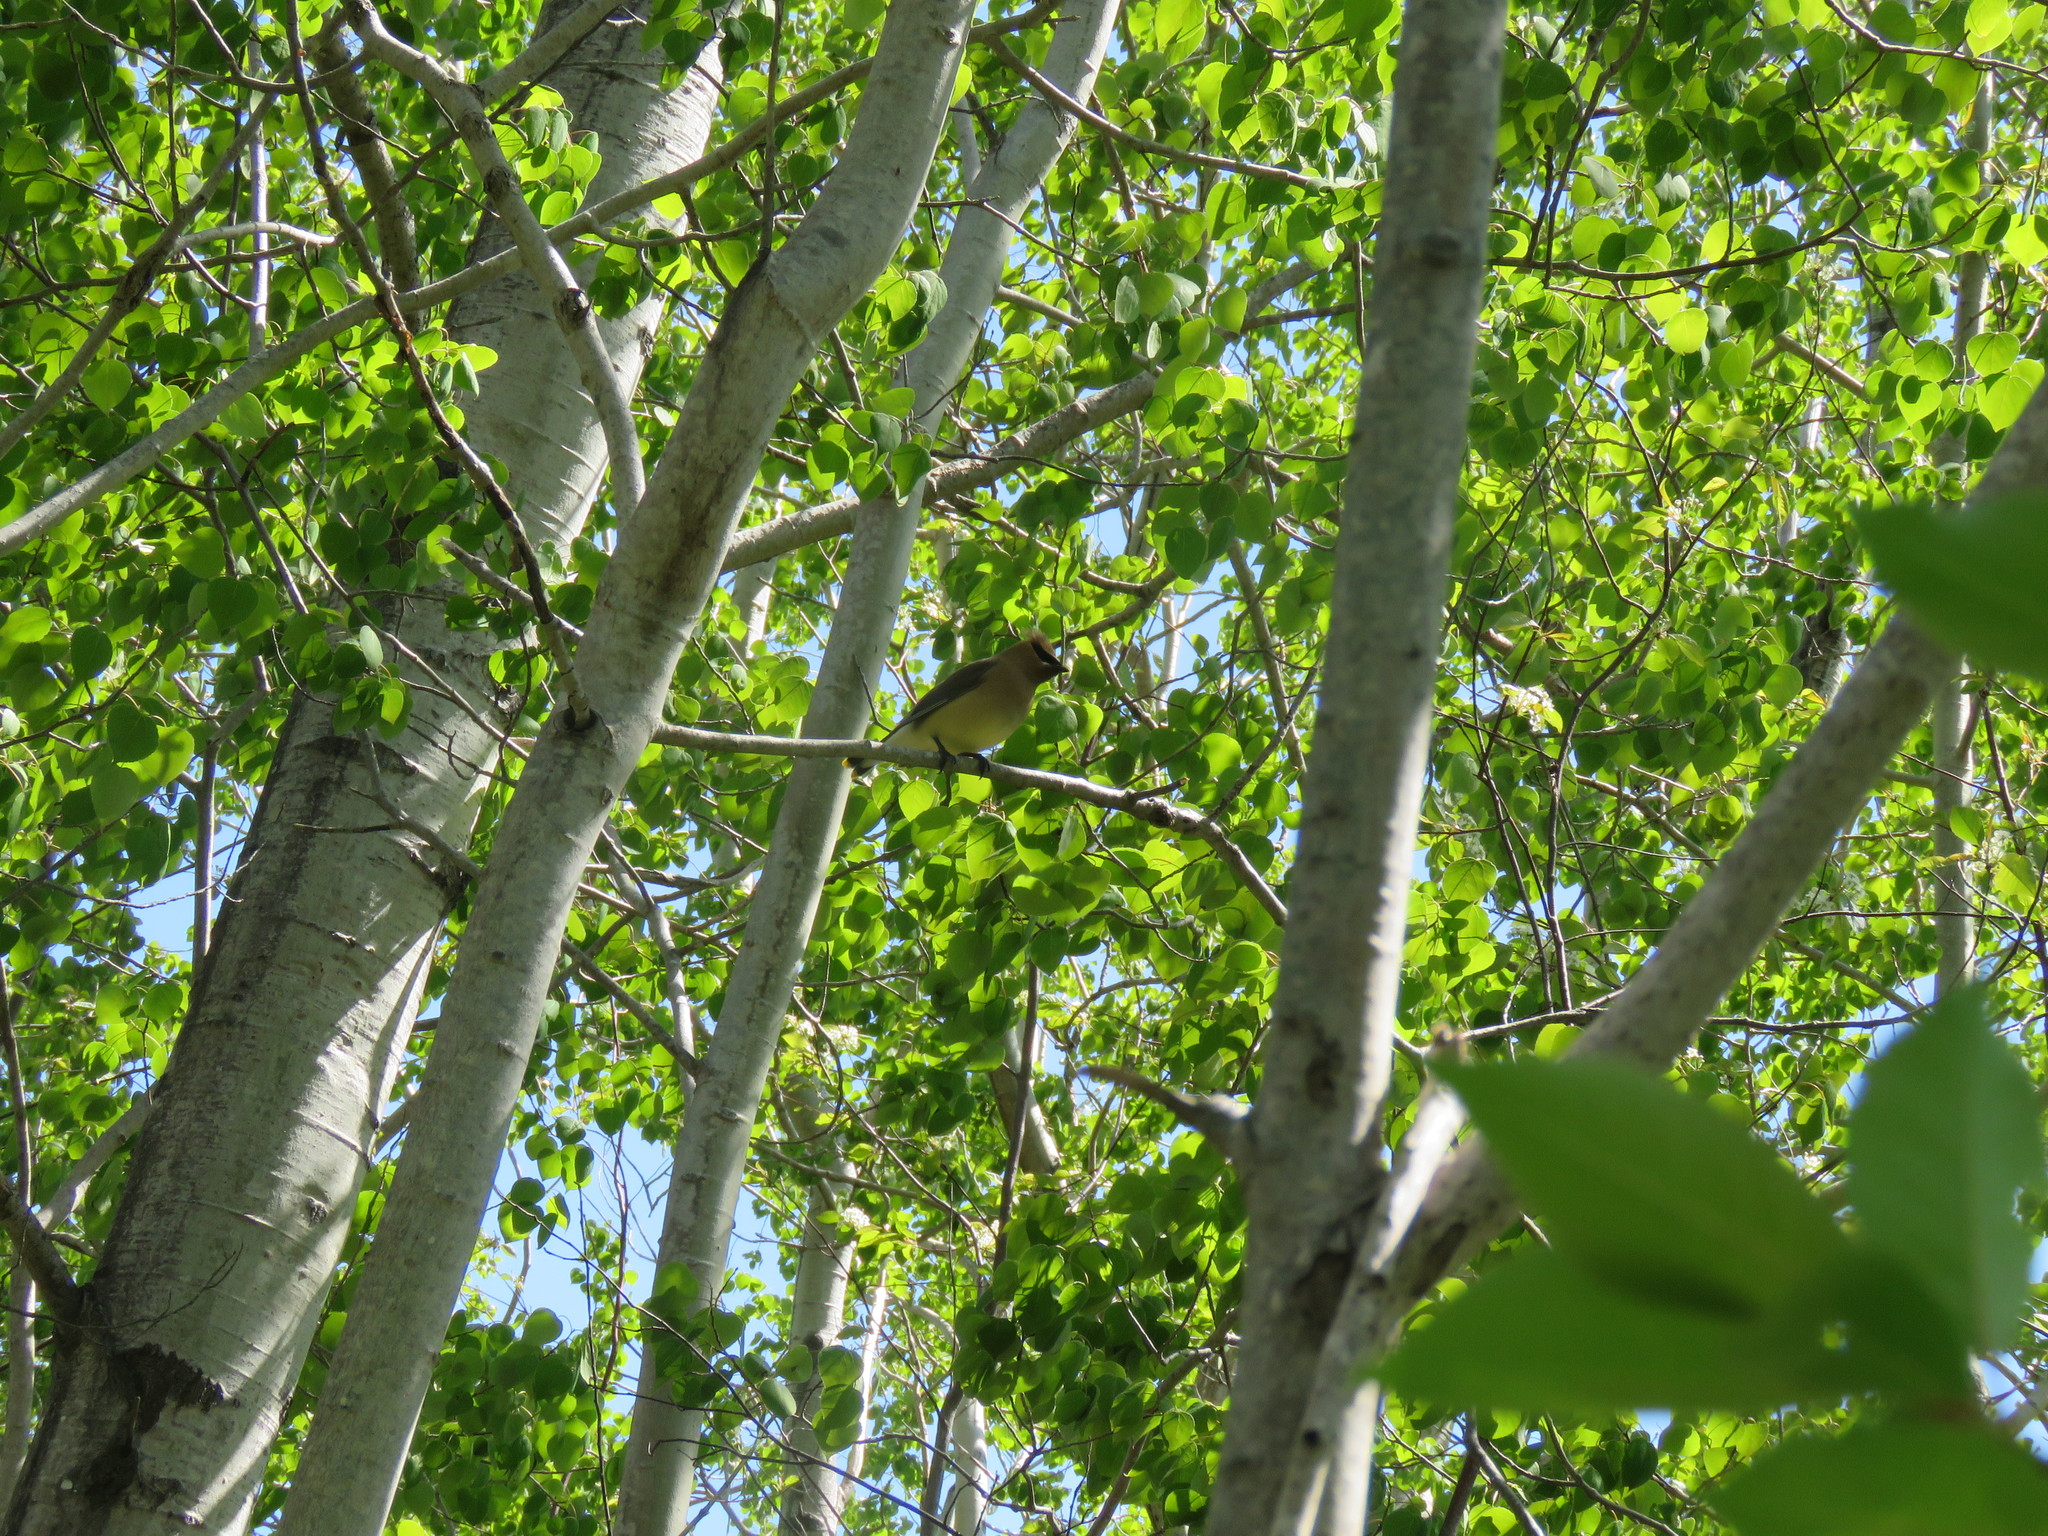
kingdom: Animalia
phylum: Chordata
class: Aves
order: Passeriformes
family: Bombycillidae
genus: Bombycilla
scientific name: Bombycilla cedrorum
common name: Cedar waxwing
